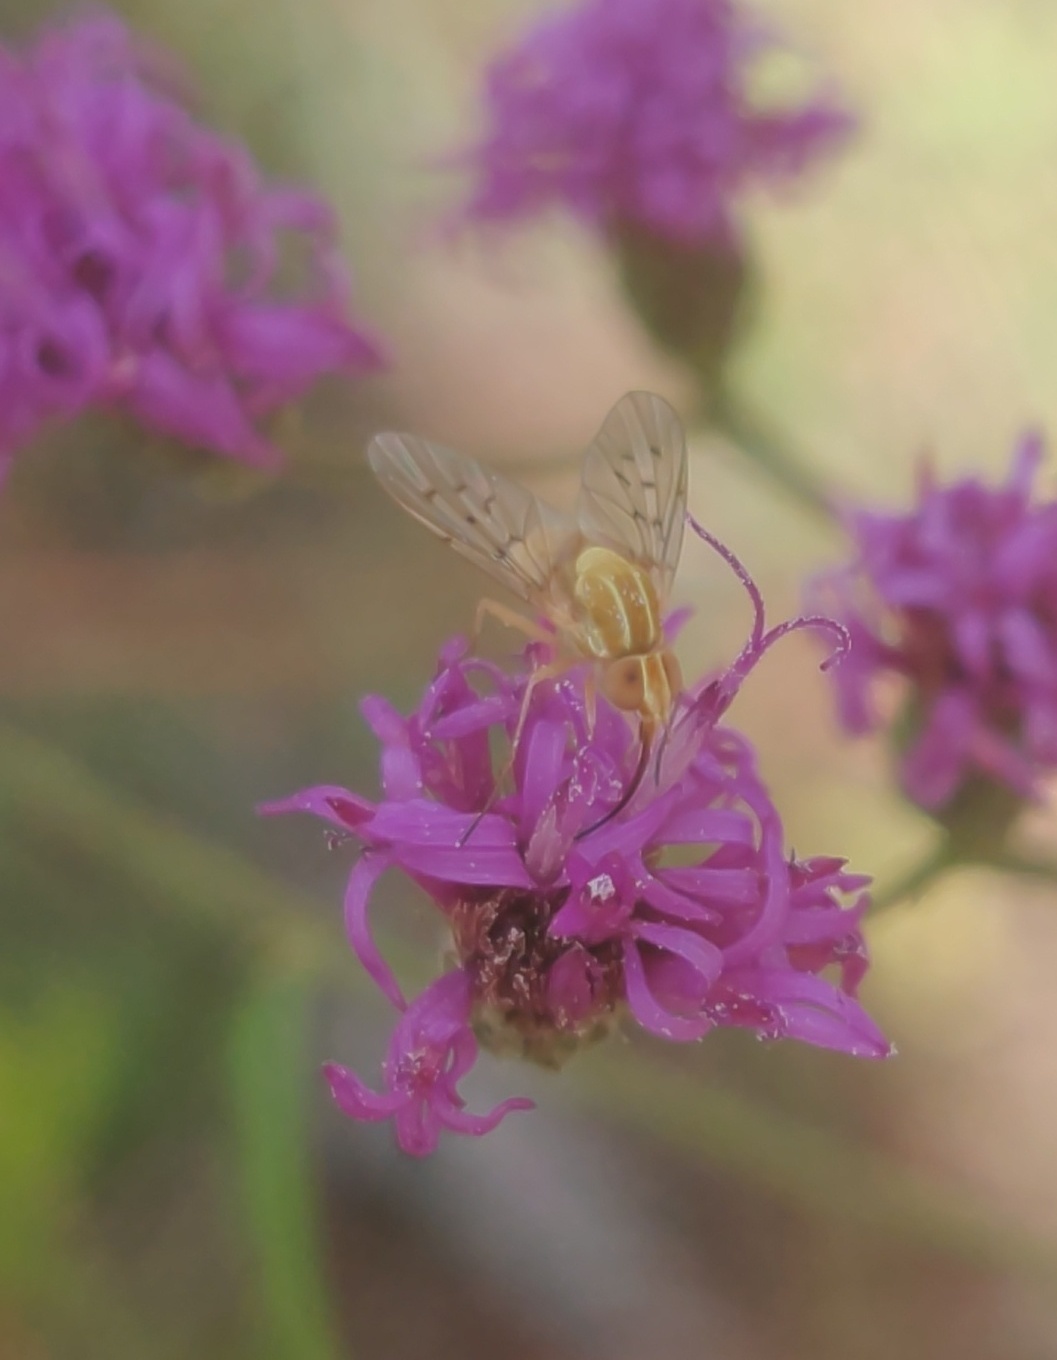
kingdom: Animalia
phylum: Arthropoda
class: Insecta
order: Diptera
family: Bombyliidae
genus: Poecilognathus
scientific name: Poecilognathus sulphureus
